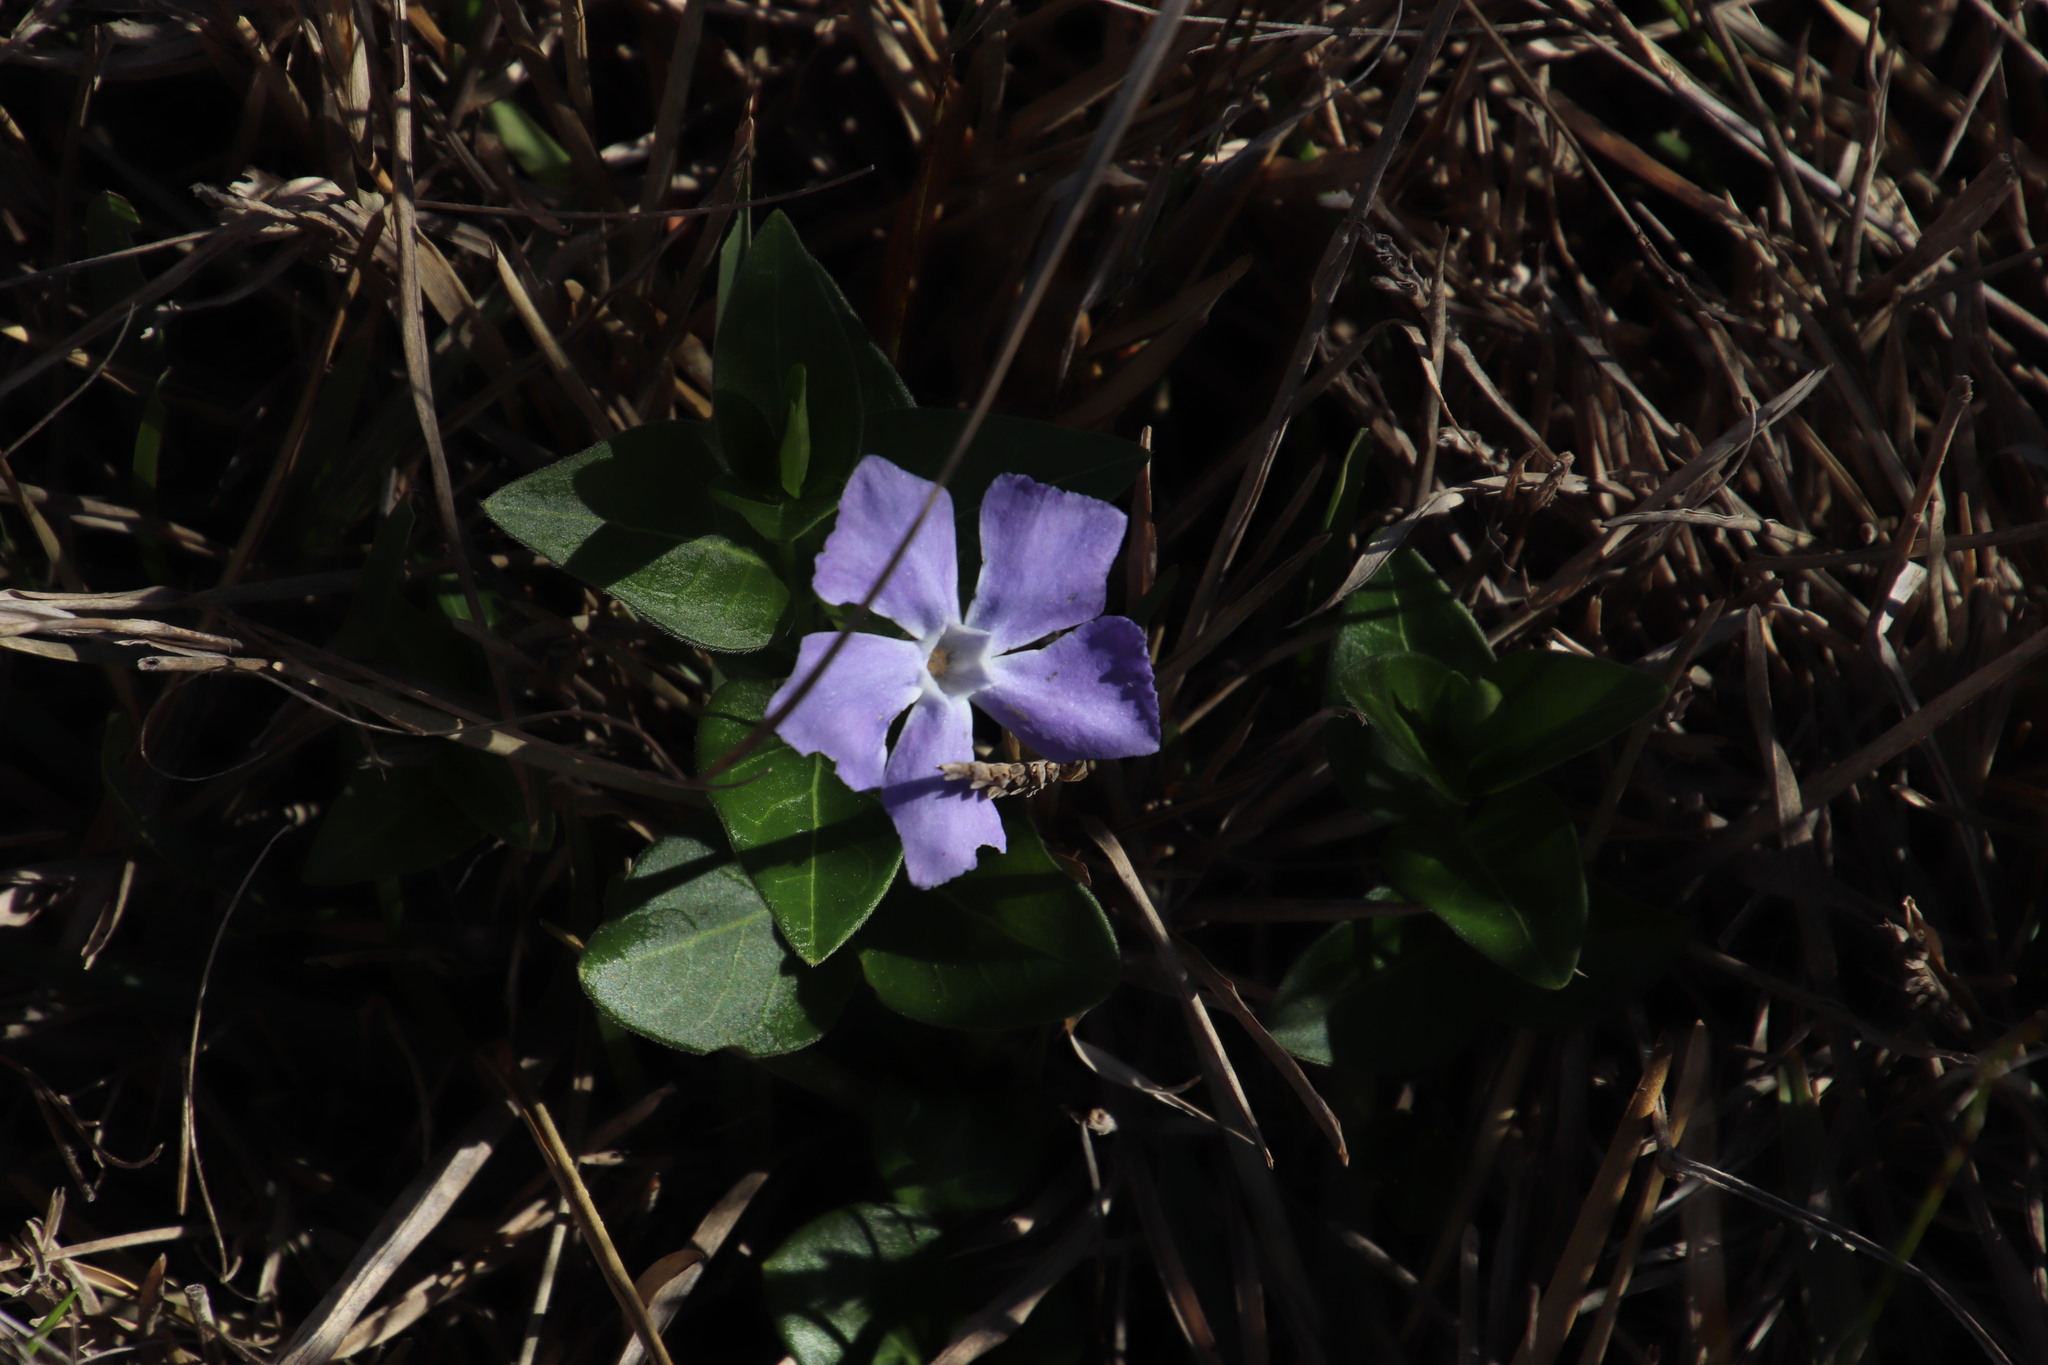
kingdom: Plantae
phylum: Tracheophyta
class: Magnoliopsida
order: Gentianales
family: Apocynaceae
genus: Vinca
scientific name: Vinca major
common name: Greater periwinkle
